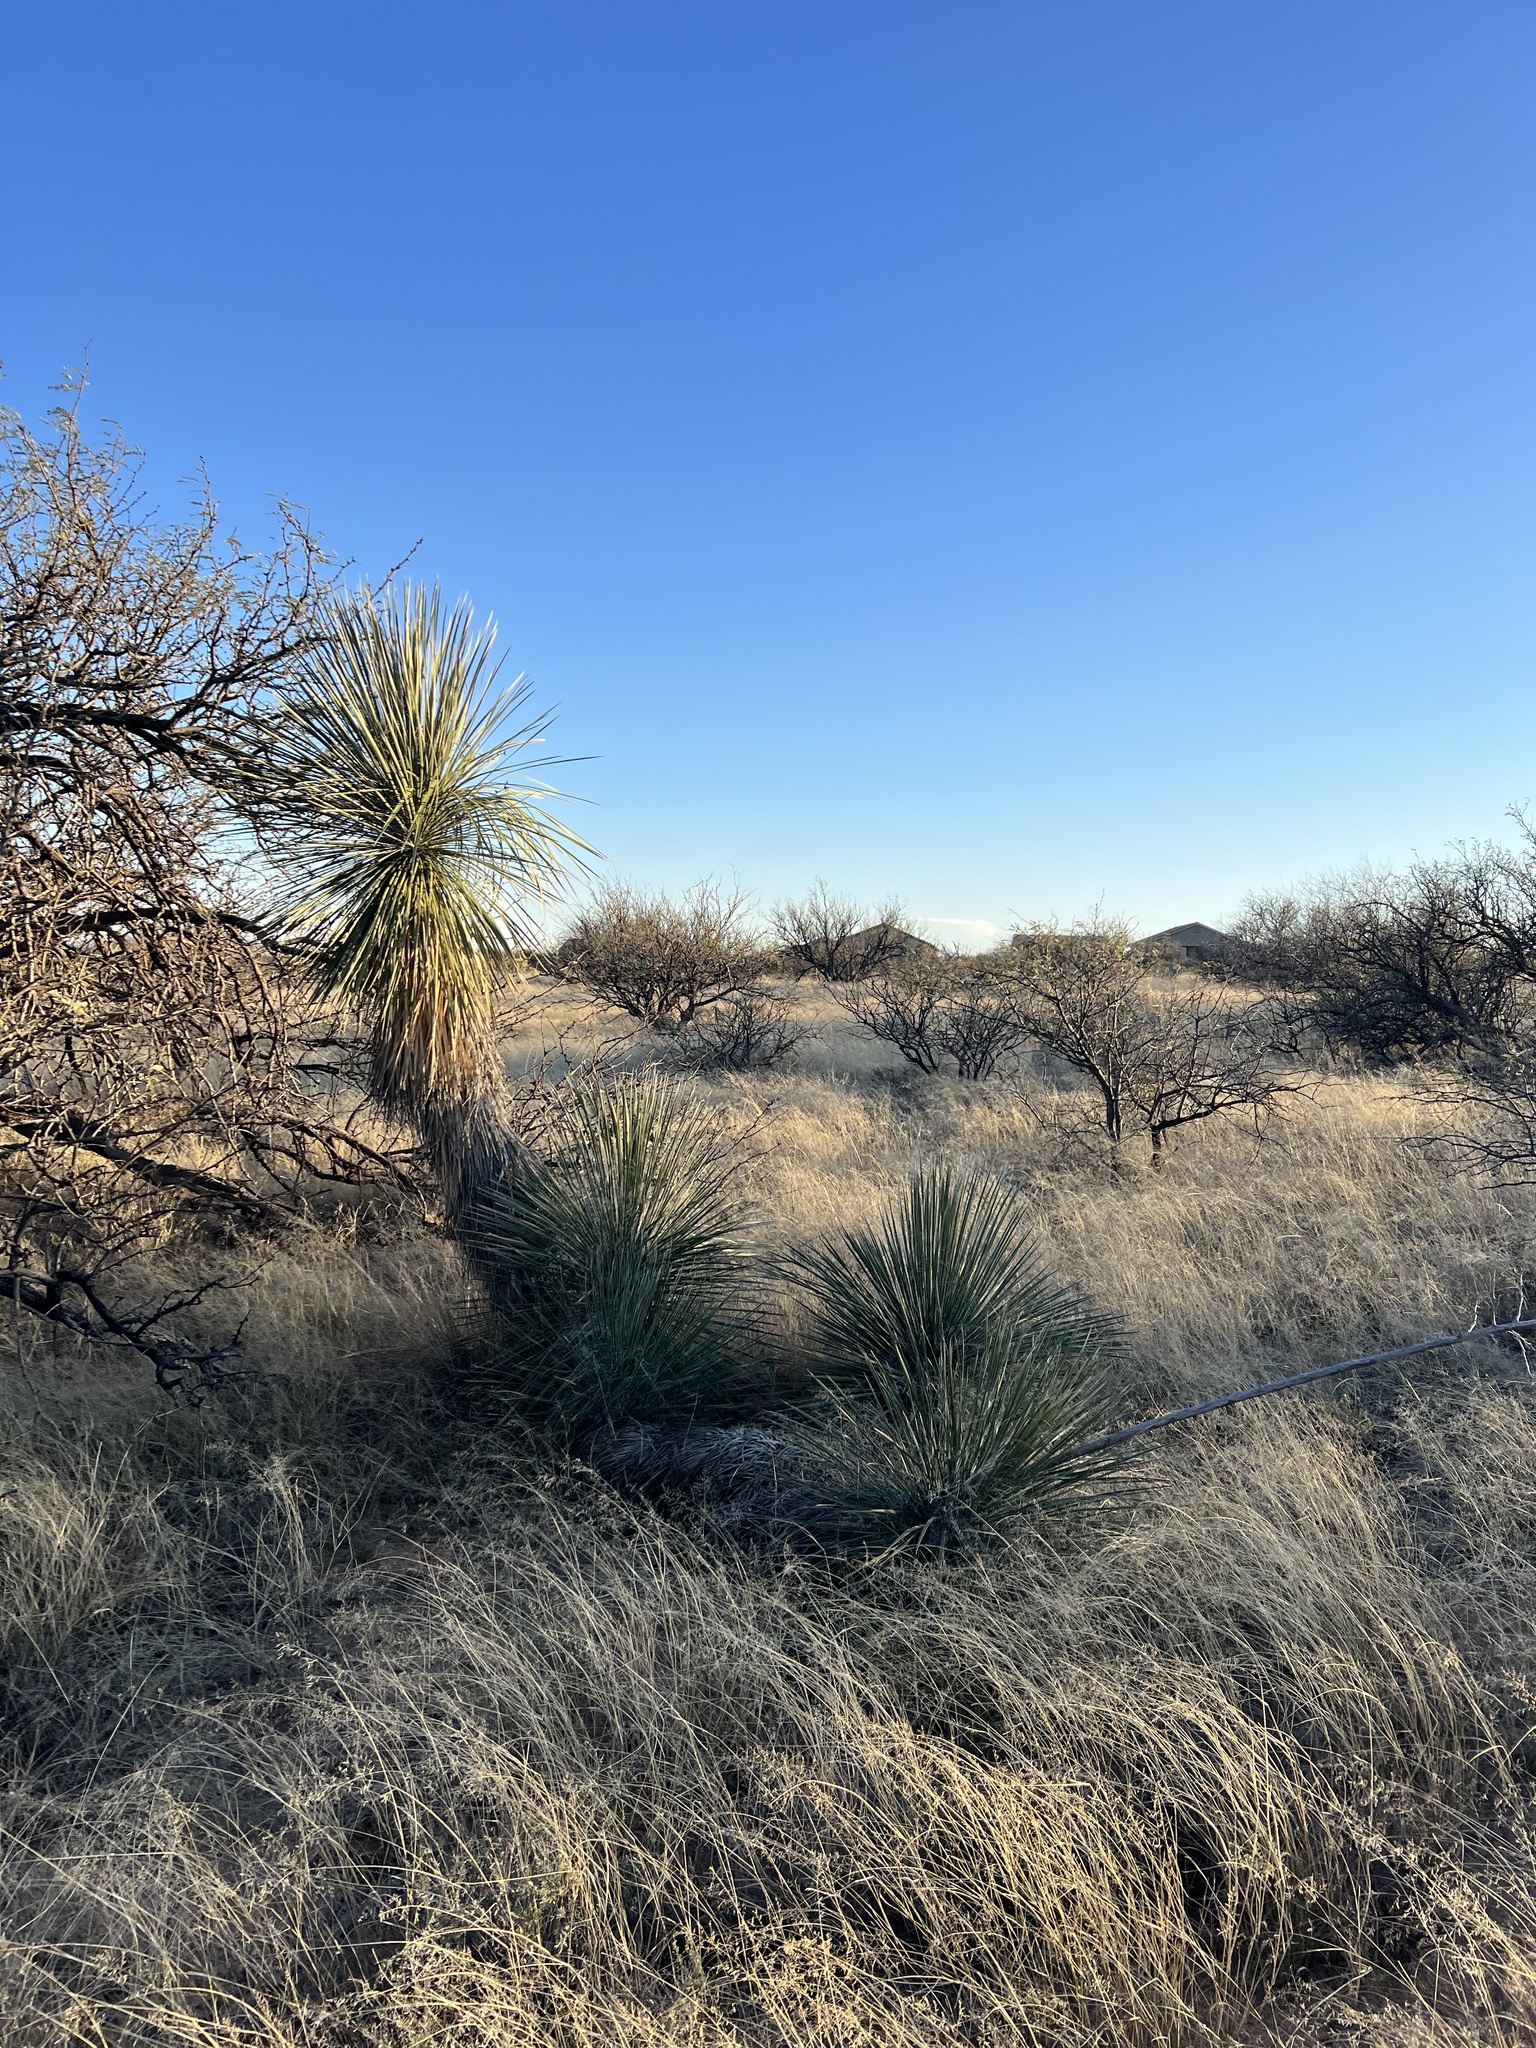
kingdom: Plantae
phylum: Tracheophyta
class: Liliopsida
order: Asparagales
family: Asparagaceae
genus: Yucca
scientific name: Yucca elata
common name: Palmella
